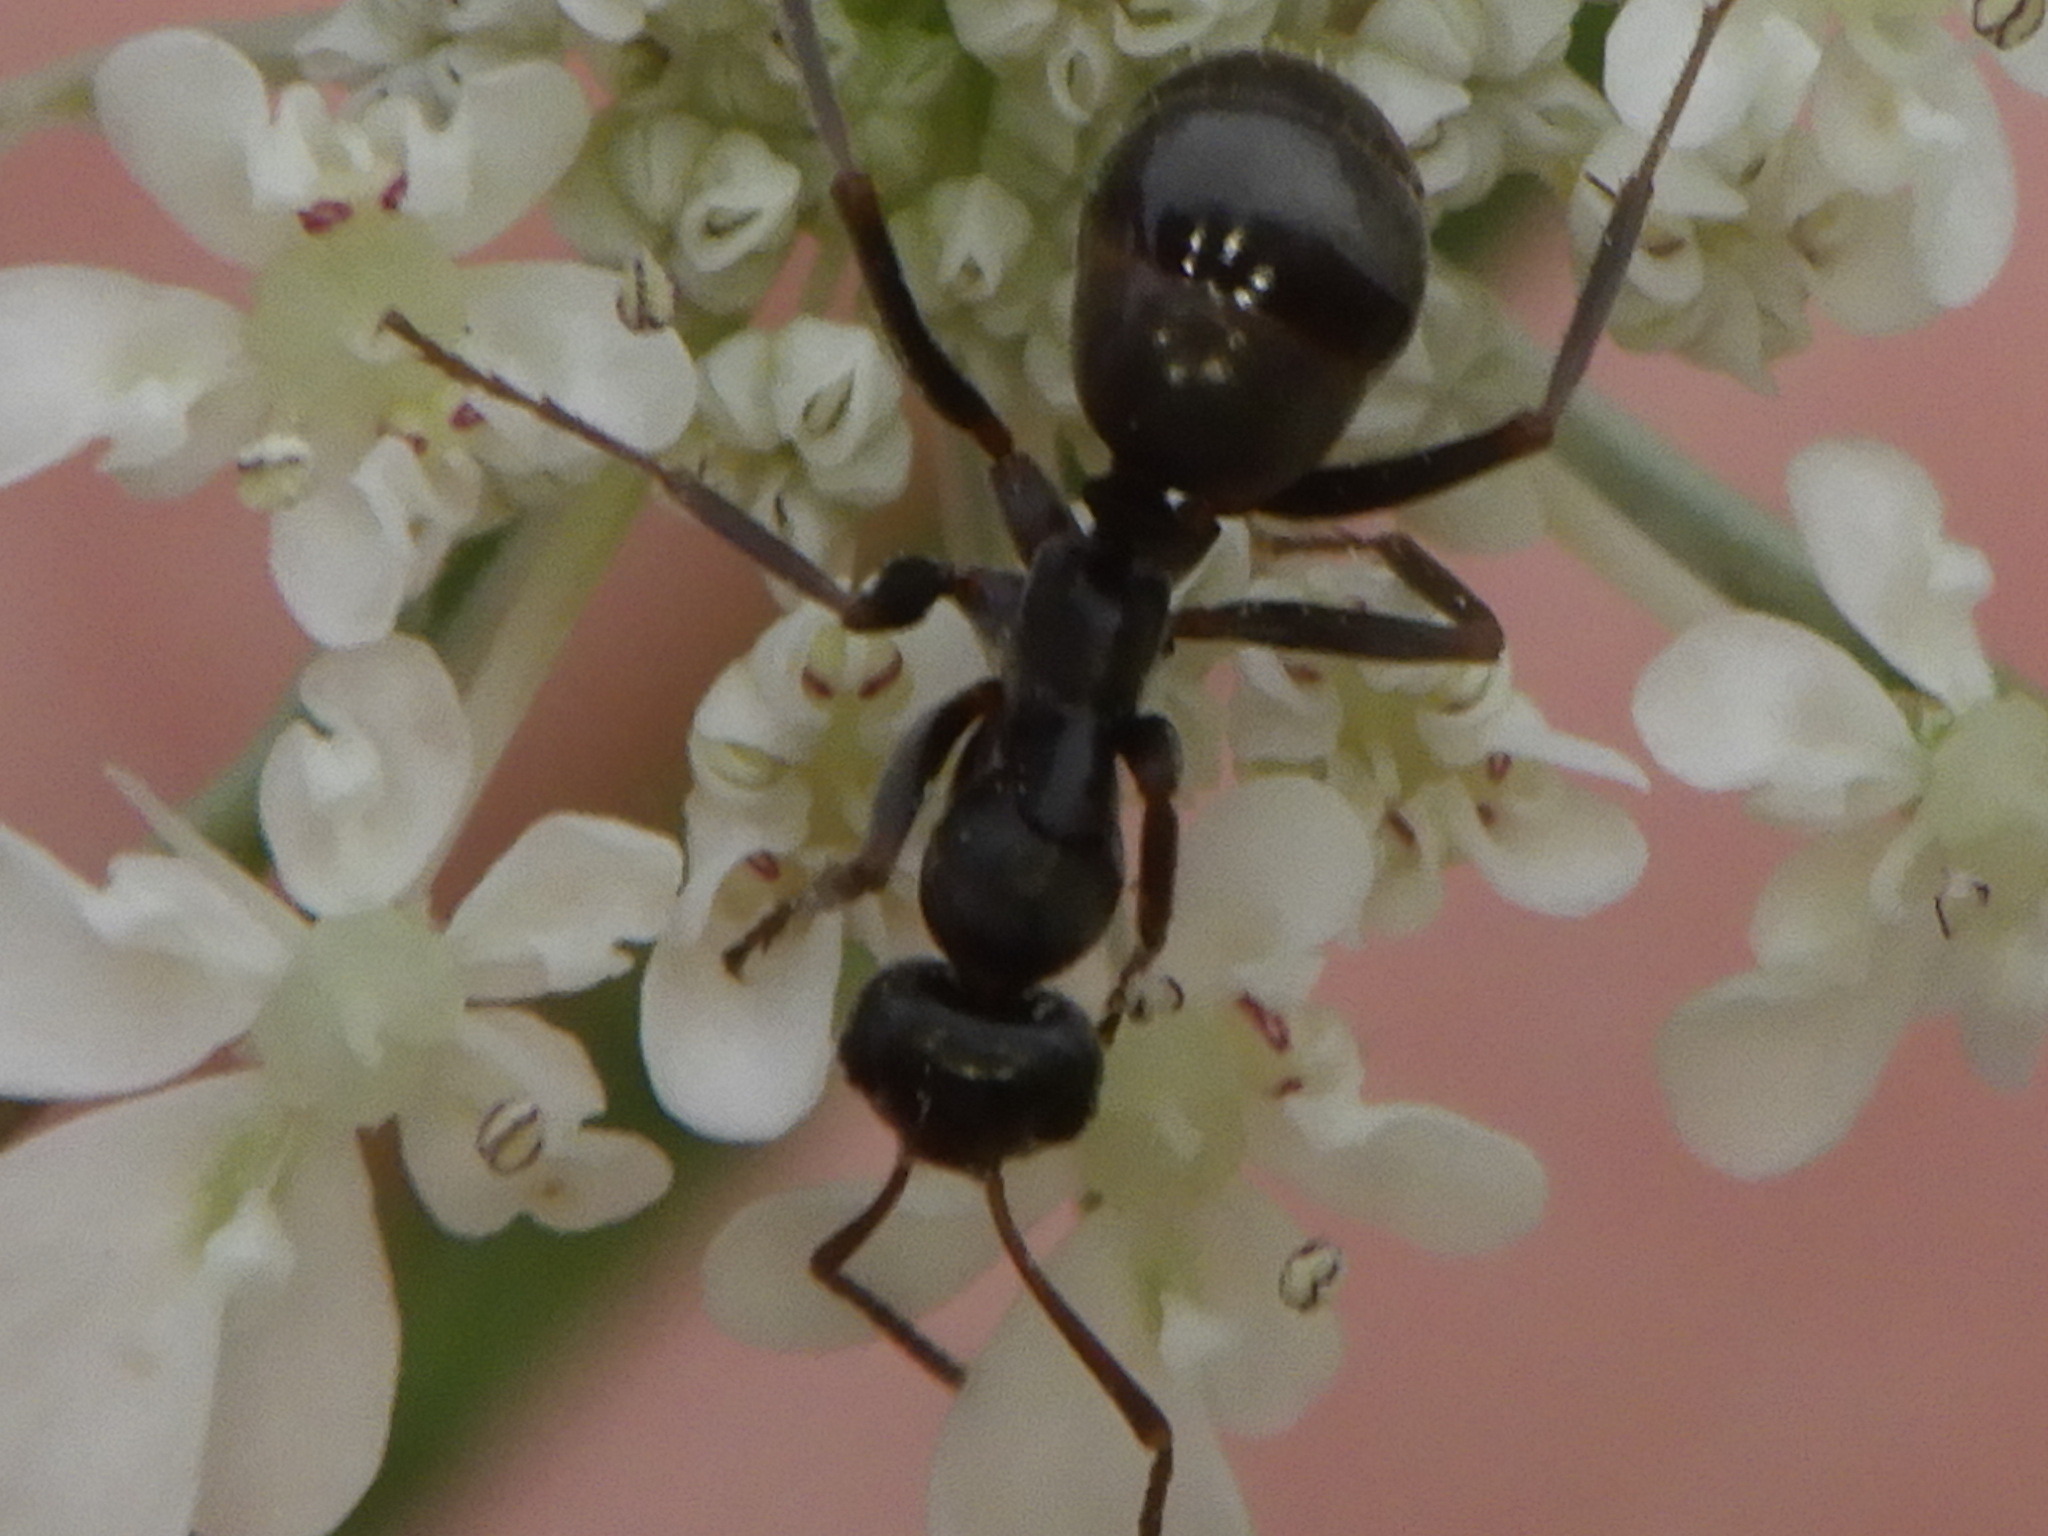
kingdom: Animalia
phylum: Arthropoda
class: Insecta
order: Hymenoptera
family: Formicidae
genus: Formica
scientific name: Formica
